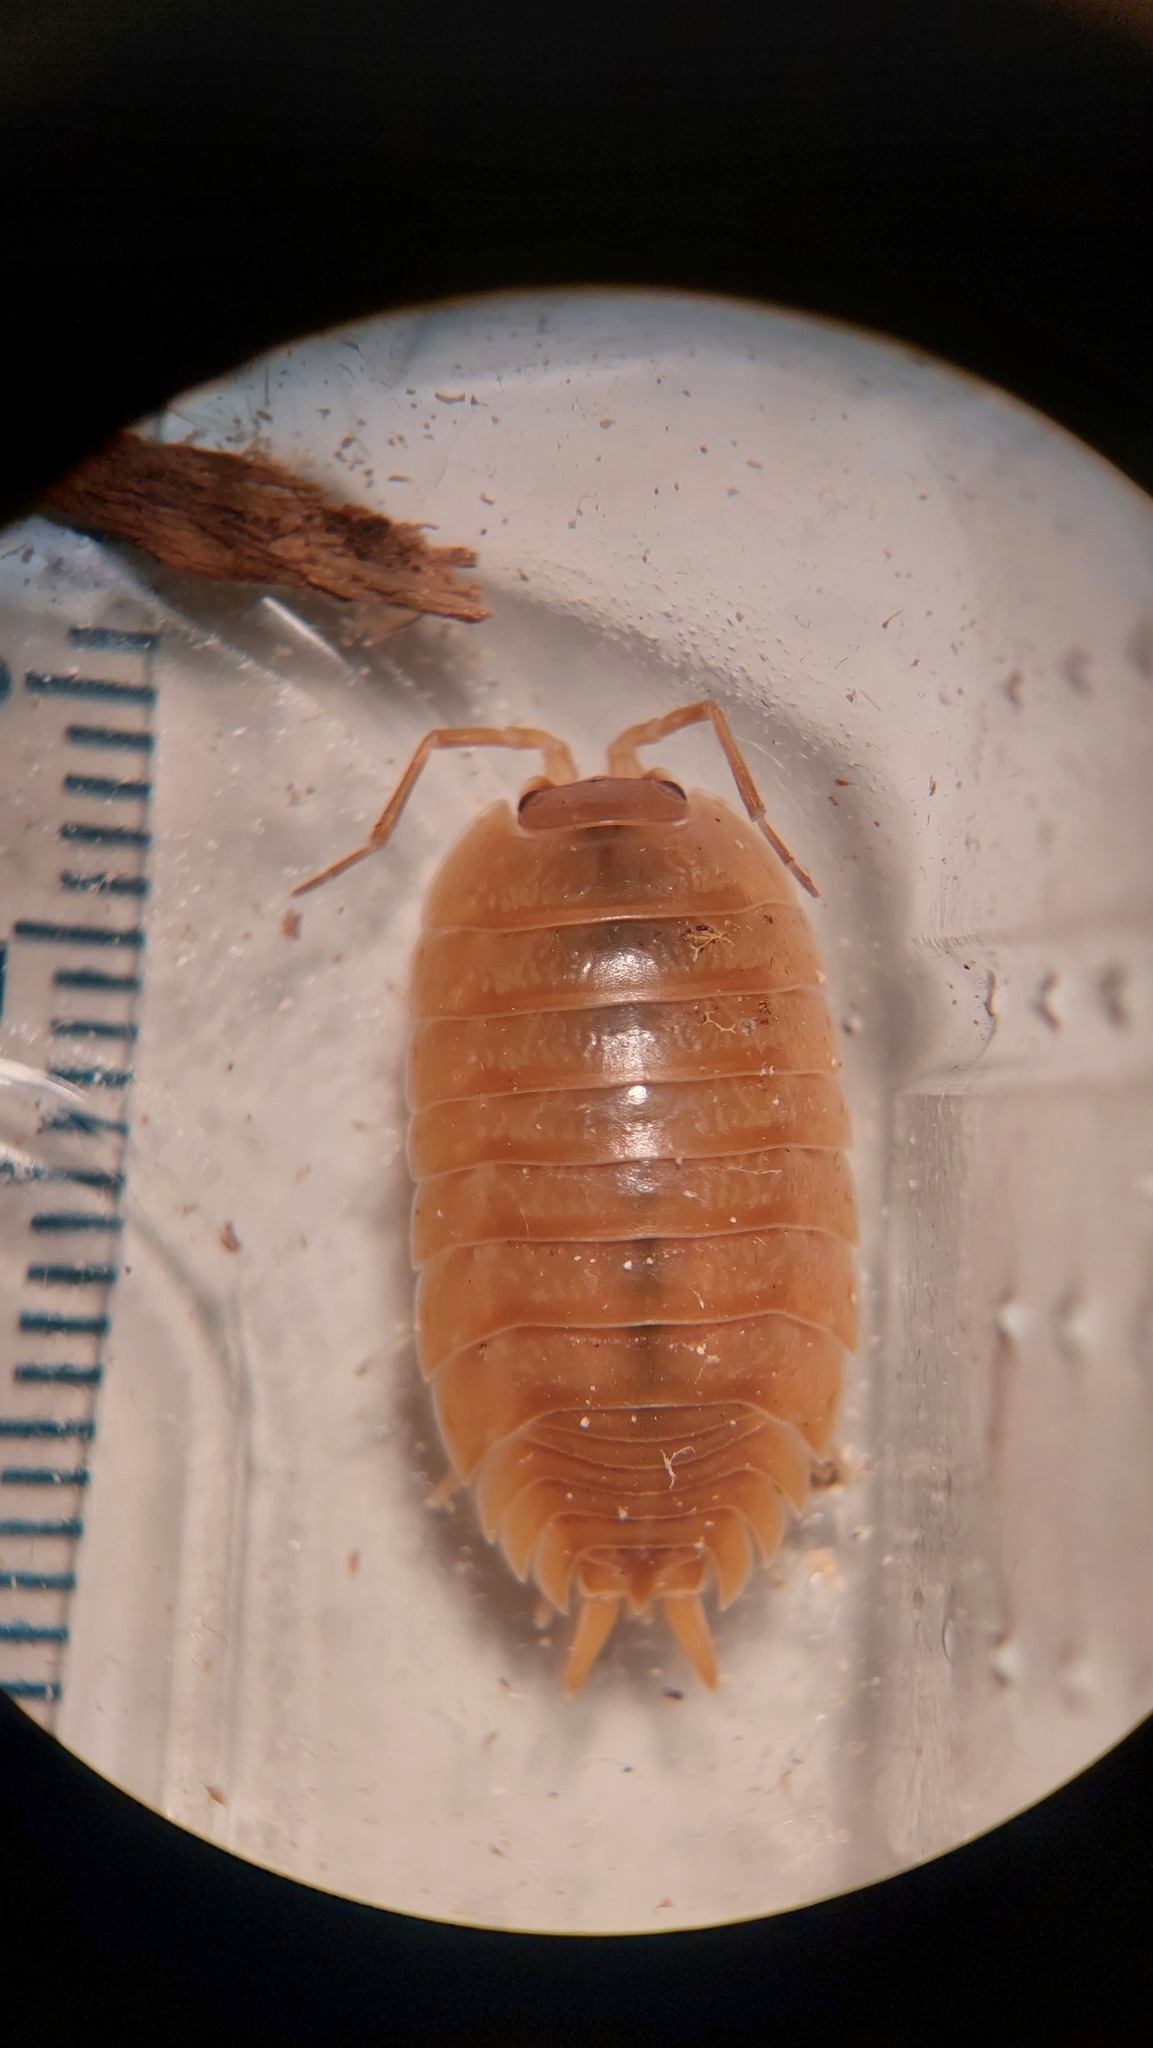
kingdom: Animalia
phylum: Arthropoda
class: Malacostraca
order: Isopoda
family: Porcellionidae
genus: Porcellio
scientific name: Porcellio laevis
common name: Swift woodlouse
